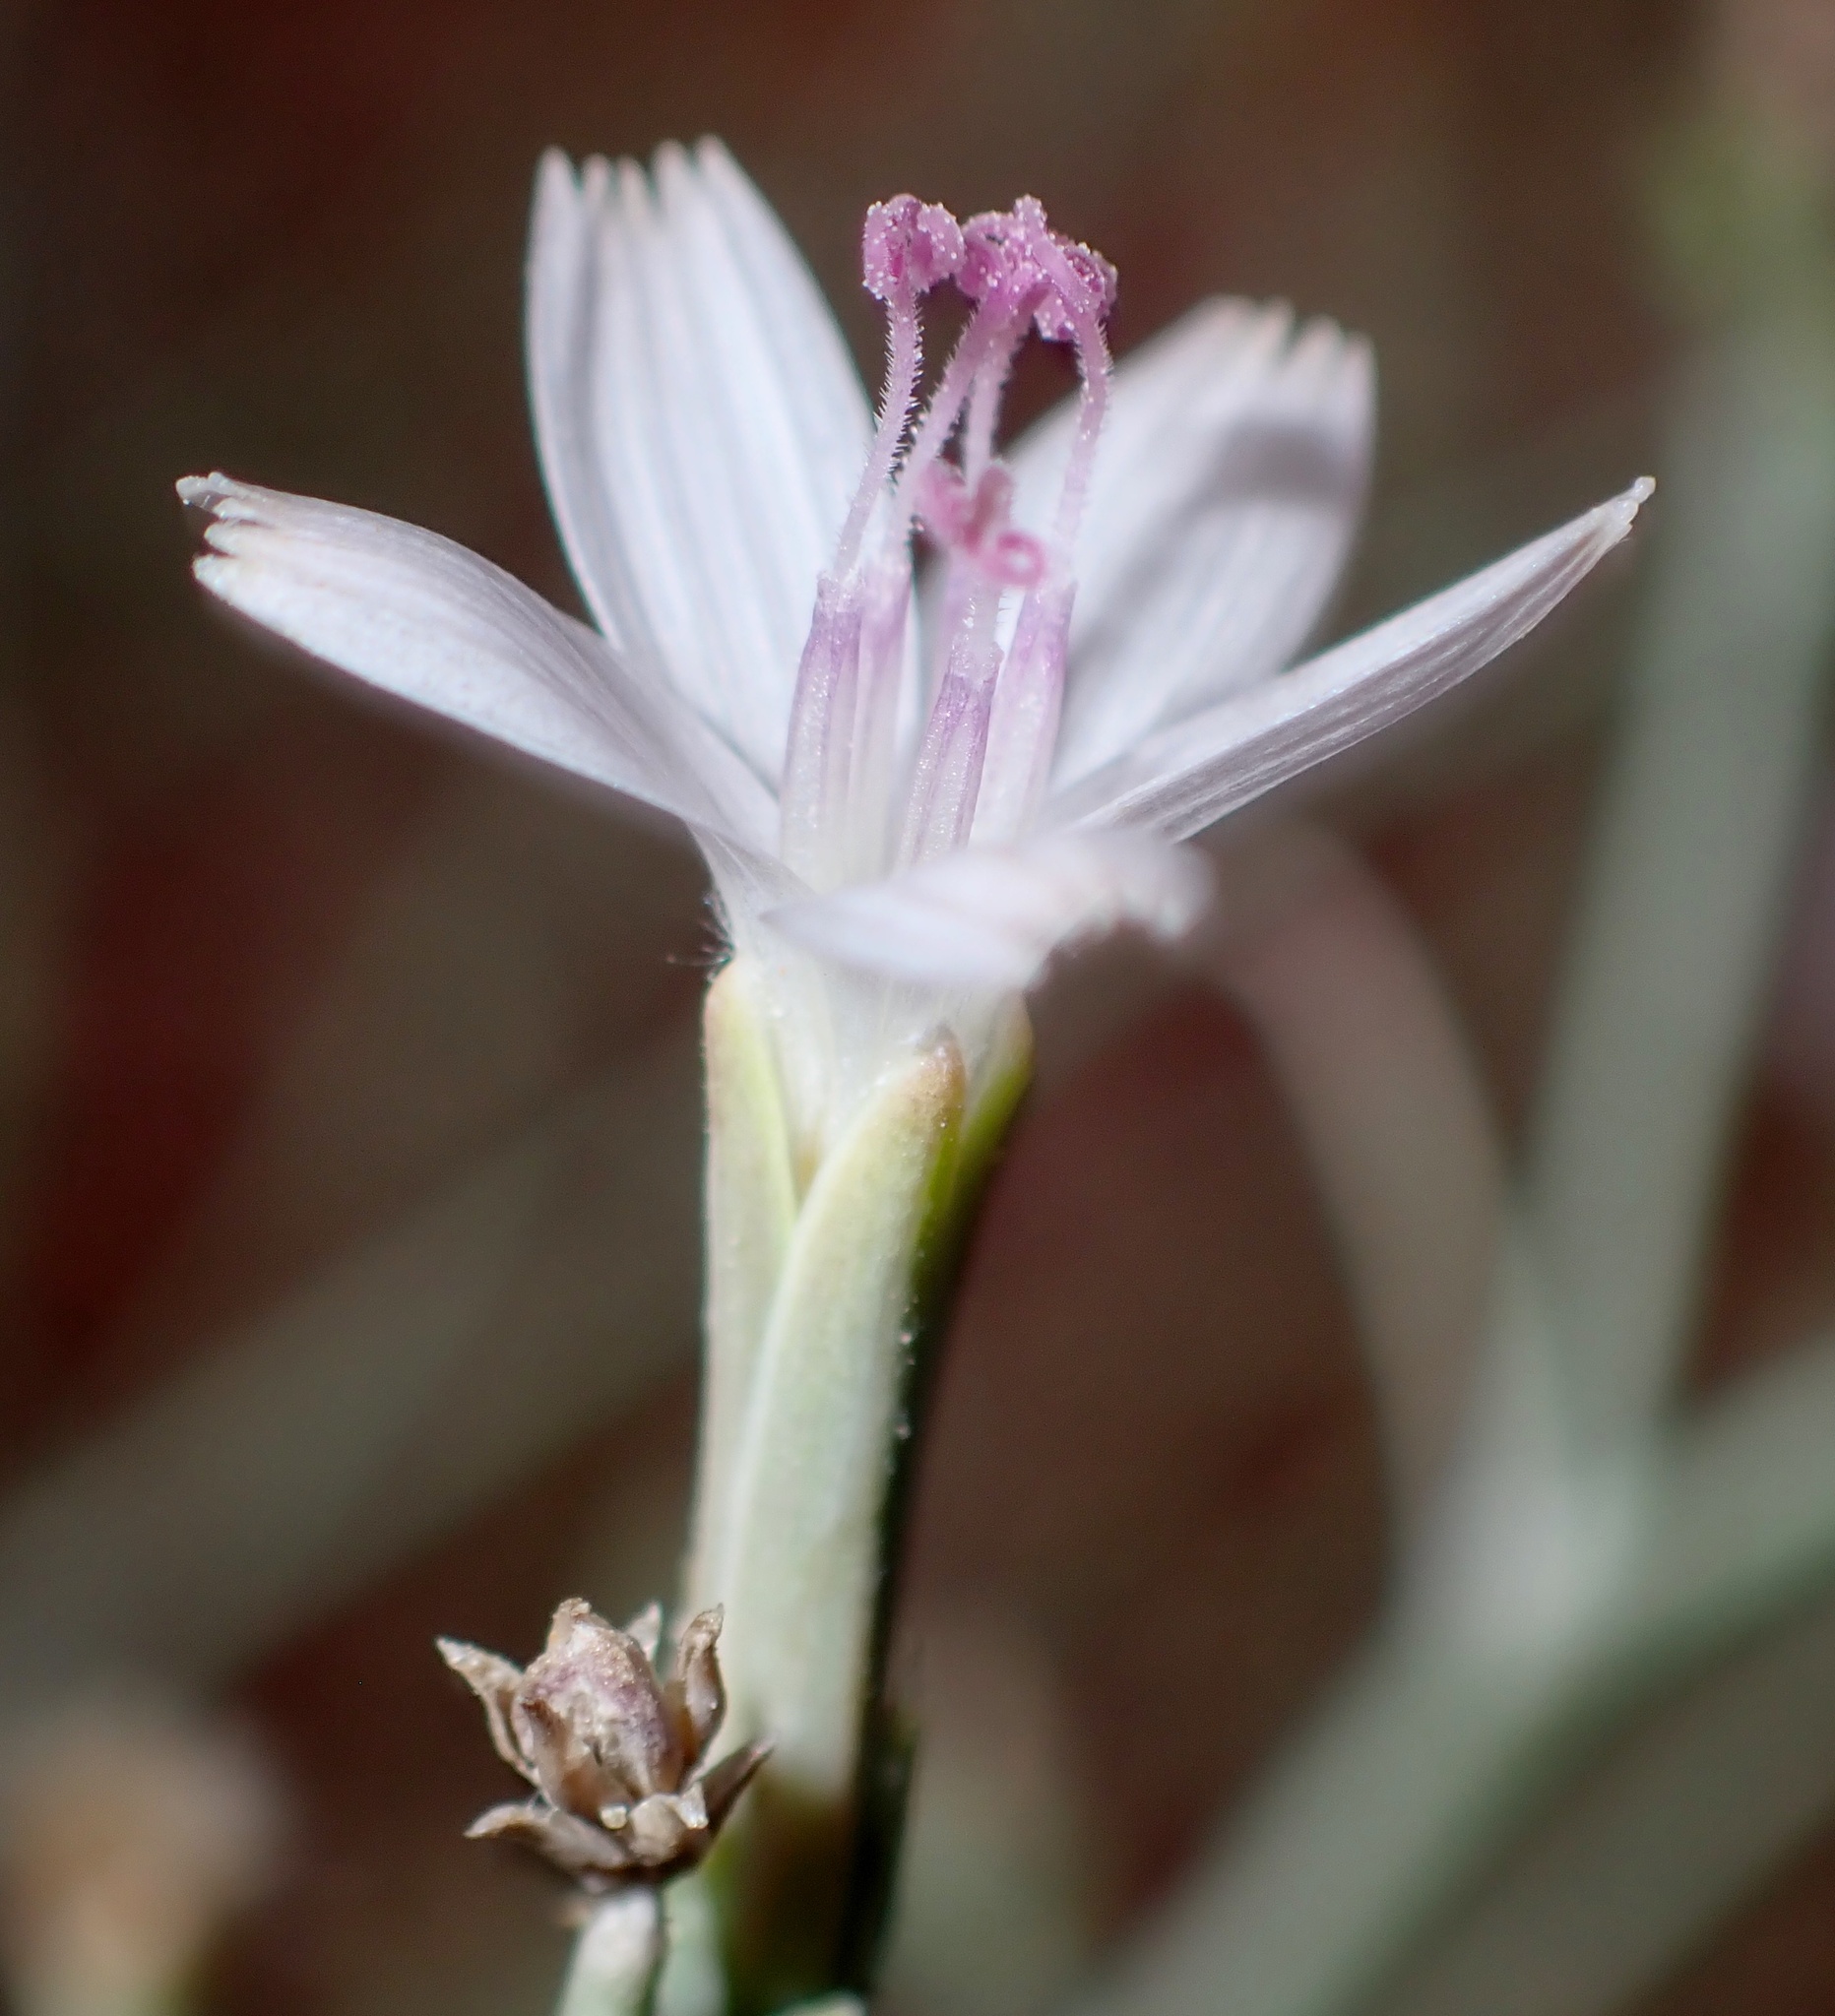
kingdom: Plantae
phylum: Tracheophyta
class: Magnoliopsida
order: Asterales
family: Asteraceae
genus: Stephanomeria
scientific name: Stephanomeria pauciflora
